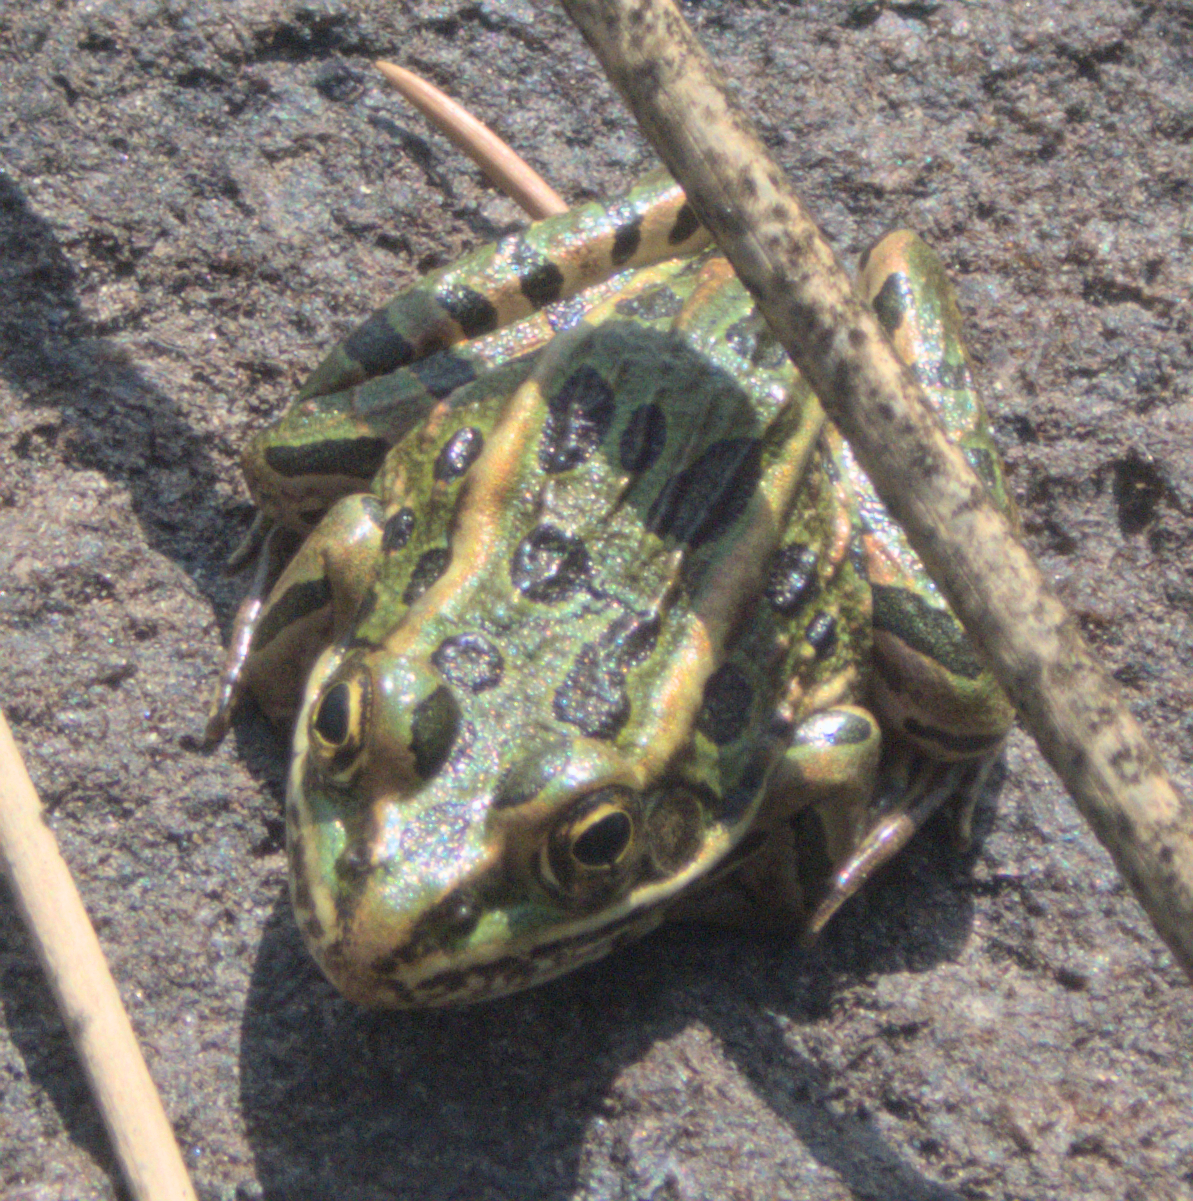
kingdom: Animalia
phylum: Chordata
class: Amphibia
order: Anura
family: Ranidae
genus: Lithobates
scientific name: Lithobates pipiens
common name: Northern leopard frog
